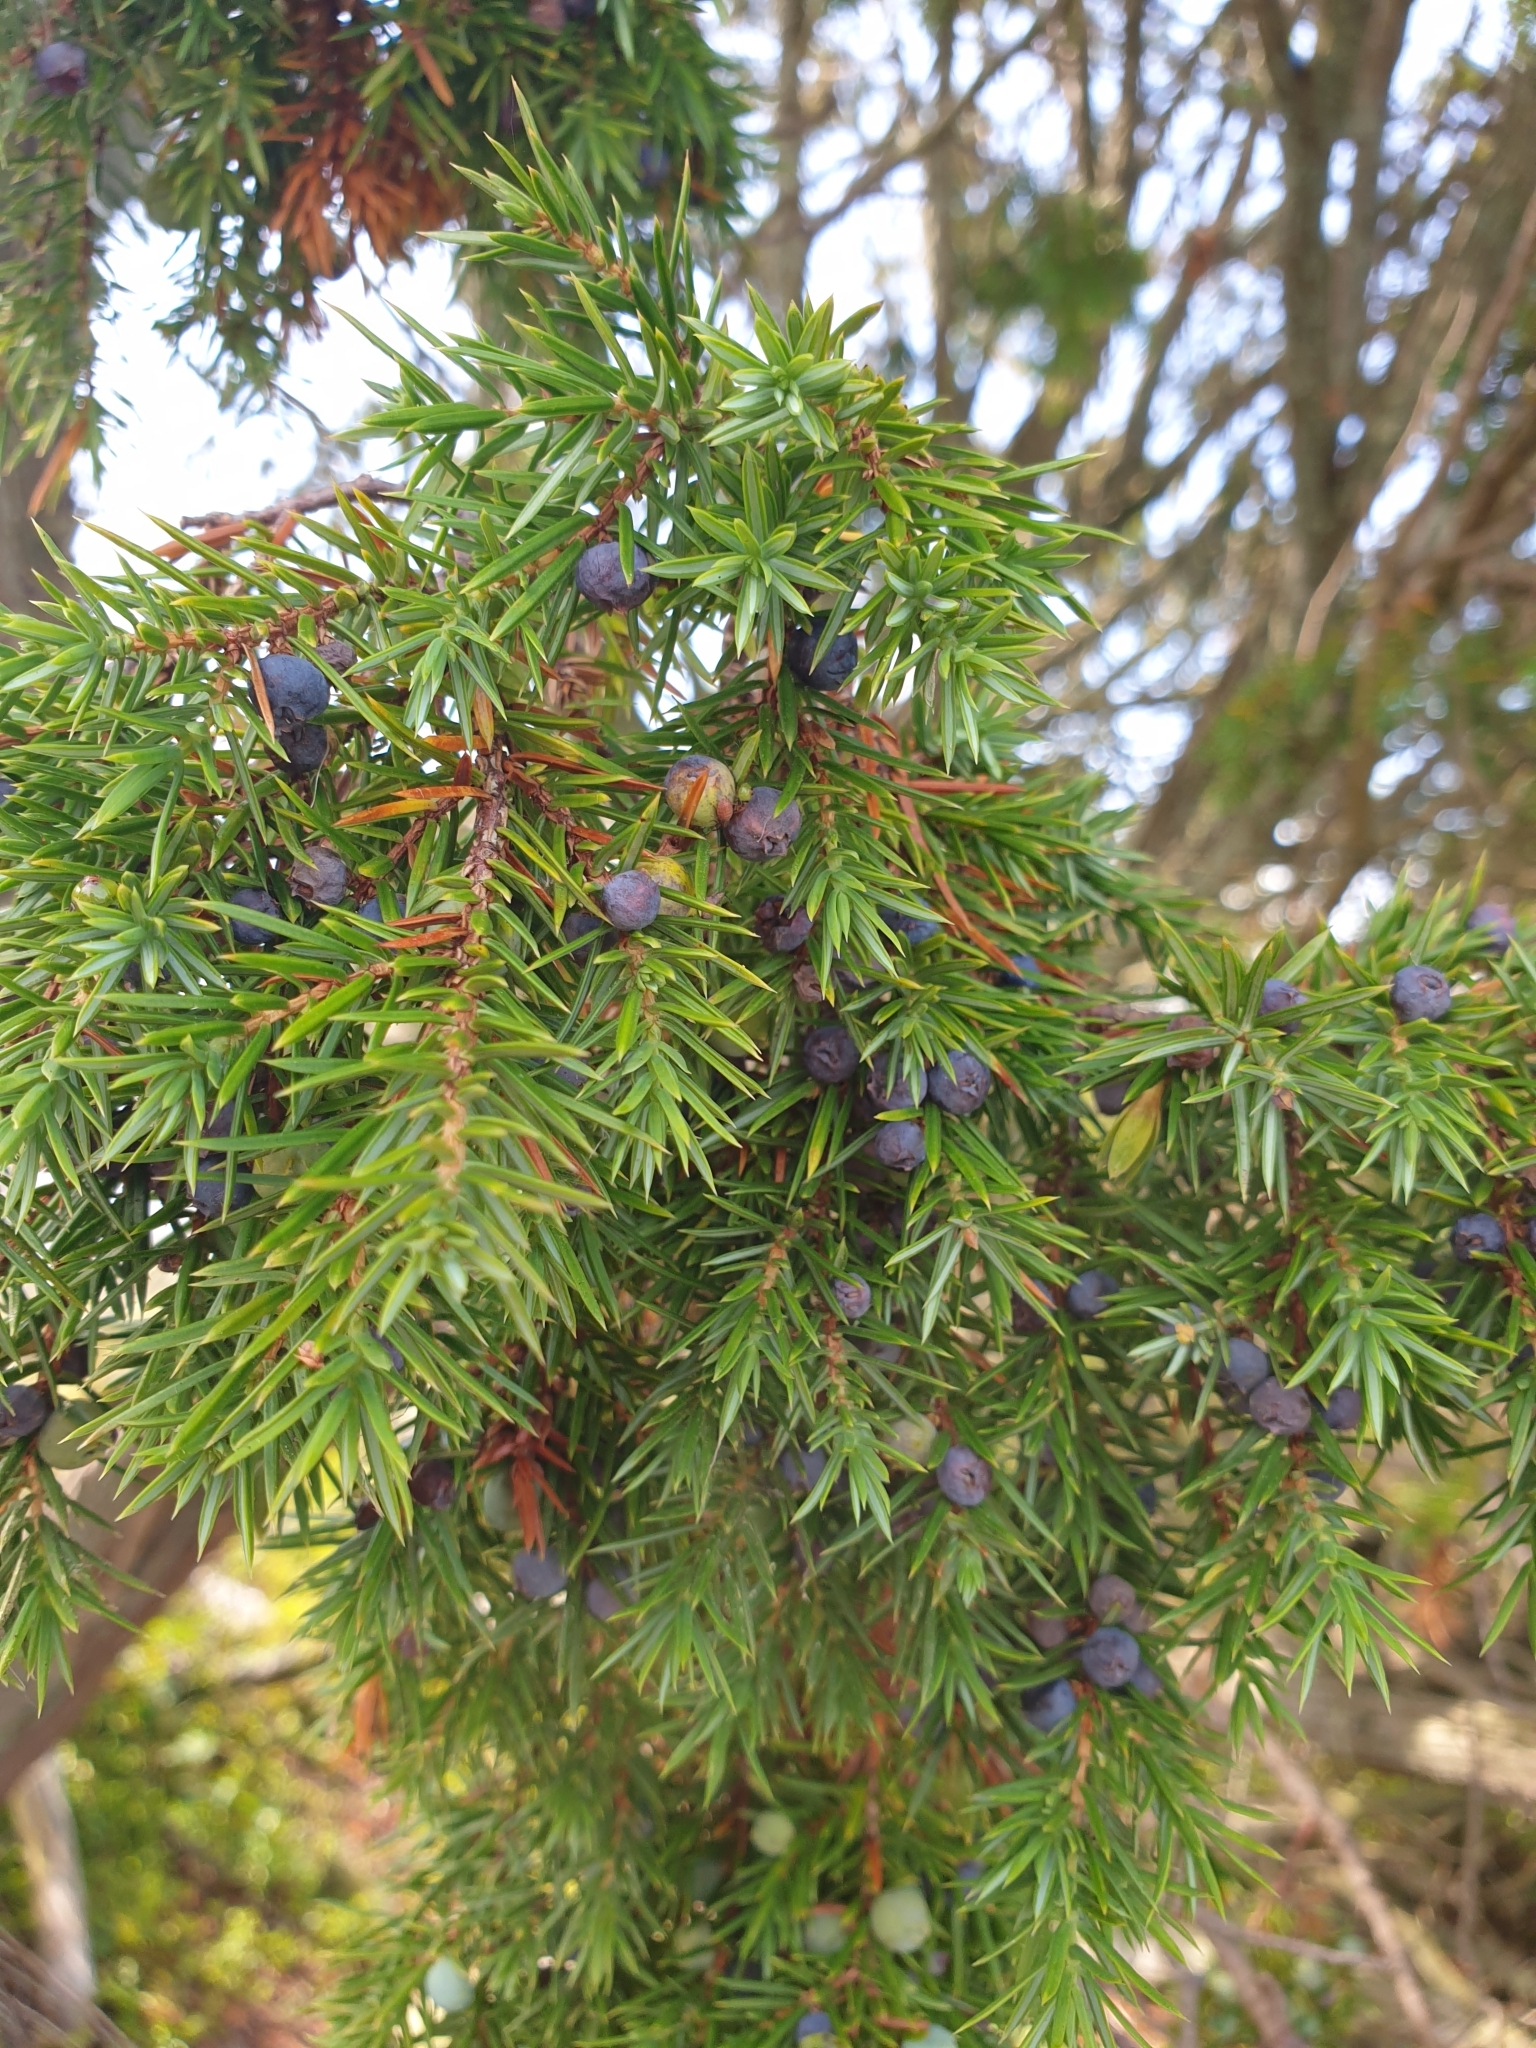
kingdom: Plantae
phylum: Tracheophyta
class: Pinopsida
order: Pinales
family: Cupressaceae
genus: Juniperus
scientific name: Juniperus communis
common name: Common juniper
